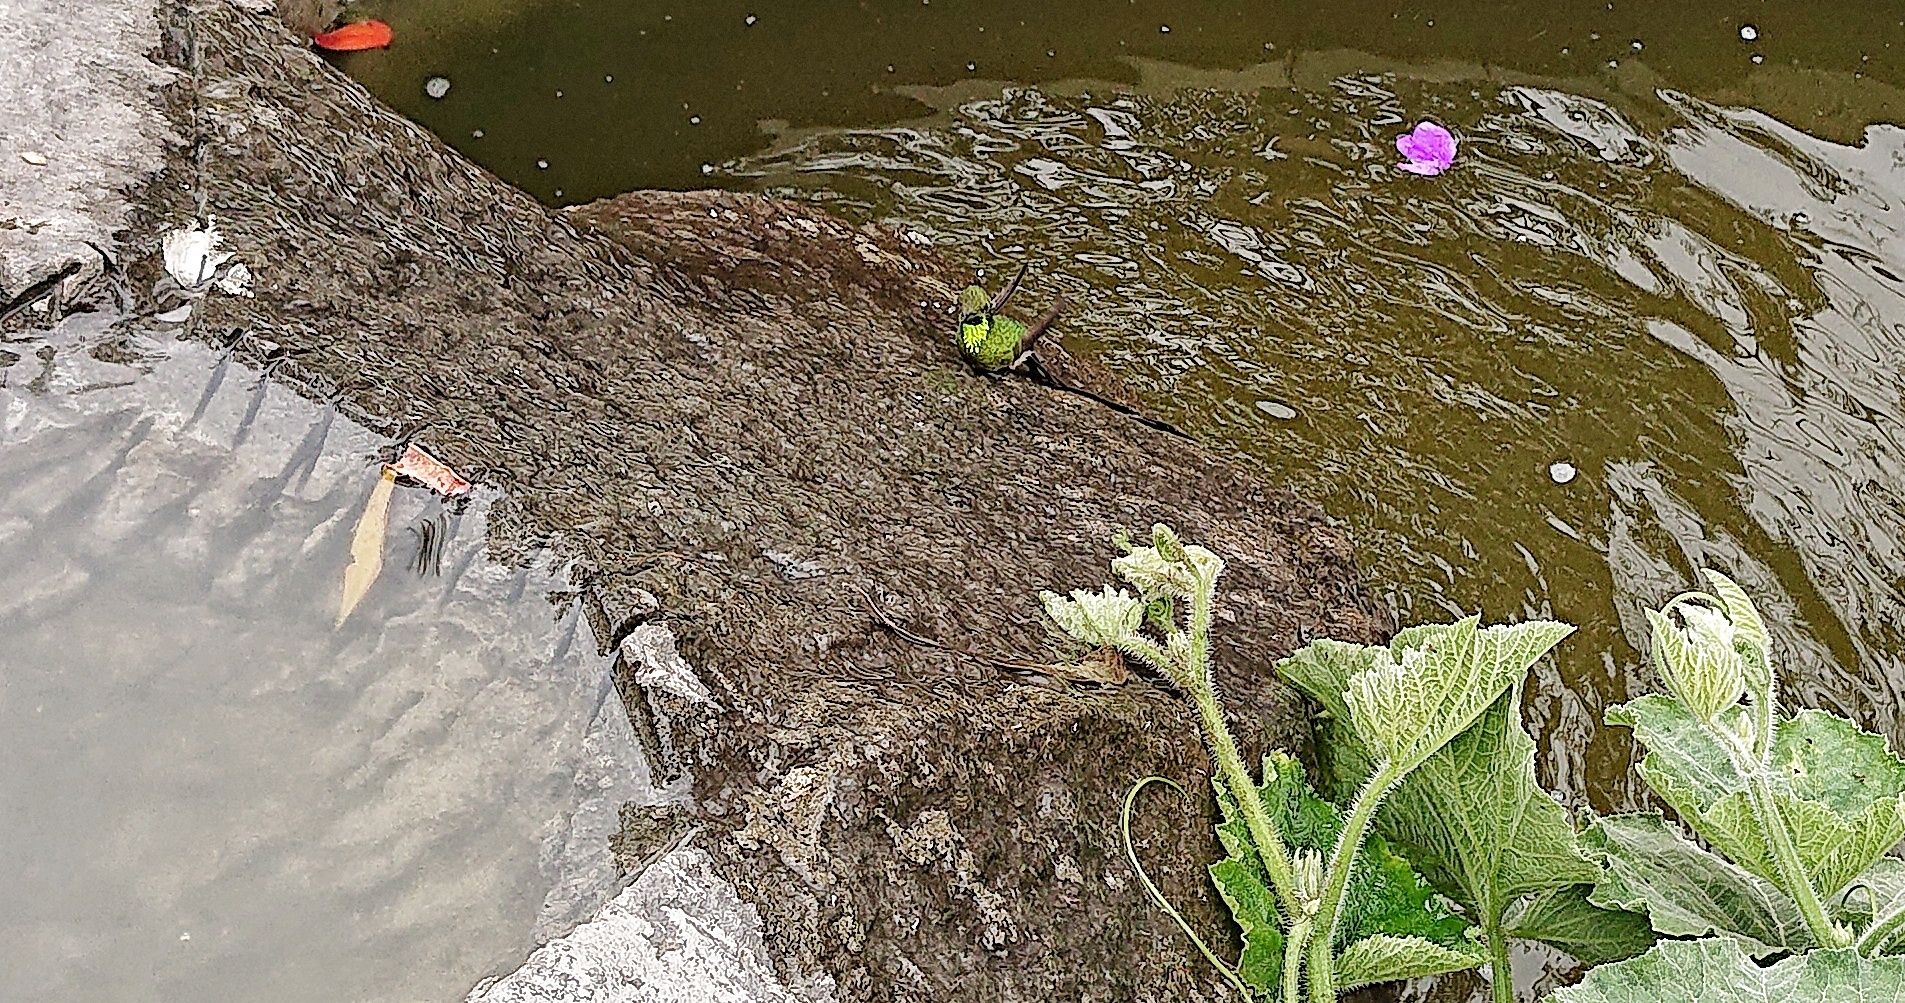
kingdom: Animalia
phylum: Chordata
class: Aves
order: Apodiformes
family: Trochilidae
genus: Lesbia
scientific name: Lesbia victoriae
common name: Black-tailed trainbearer
